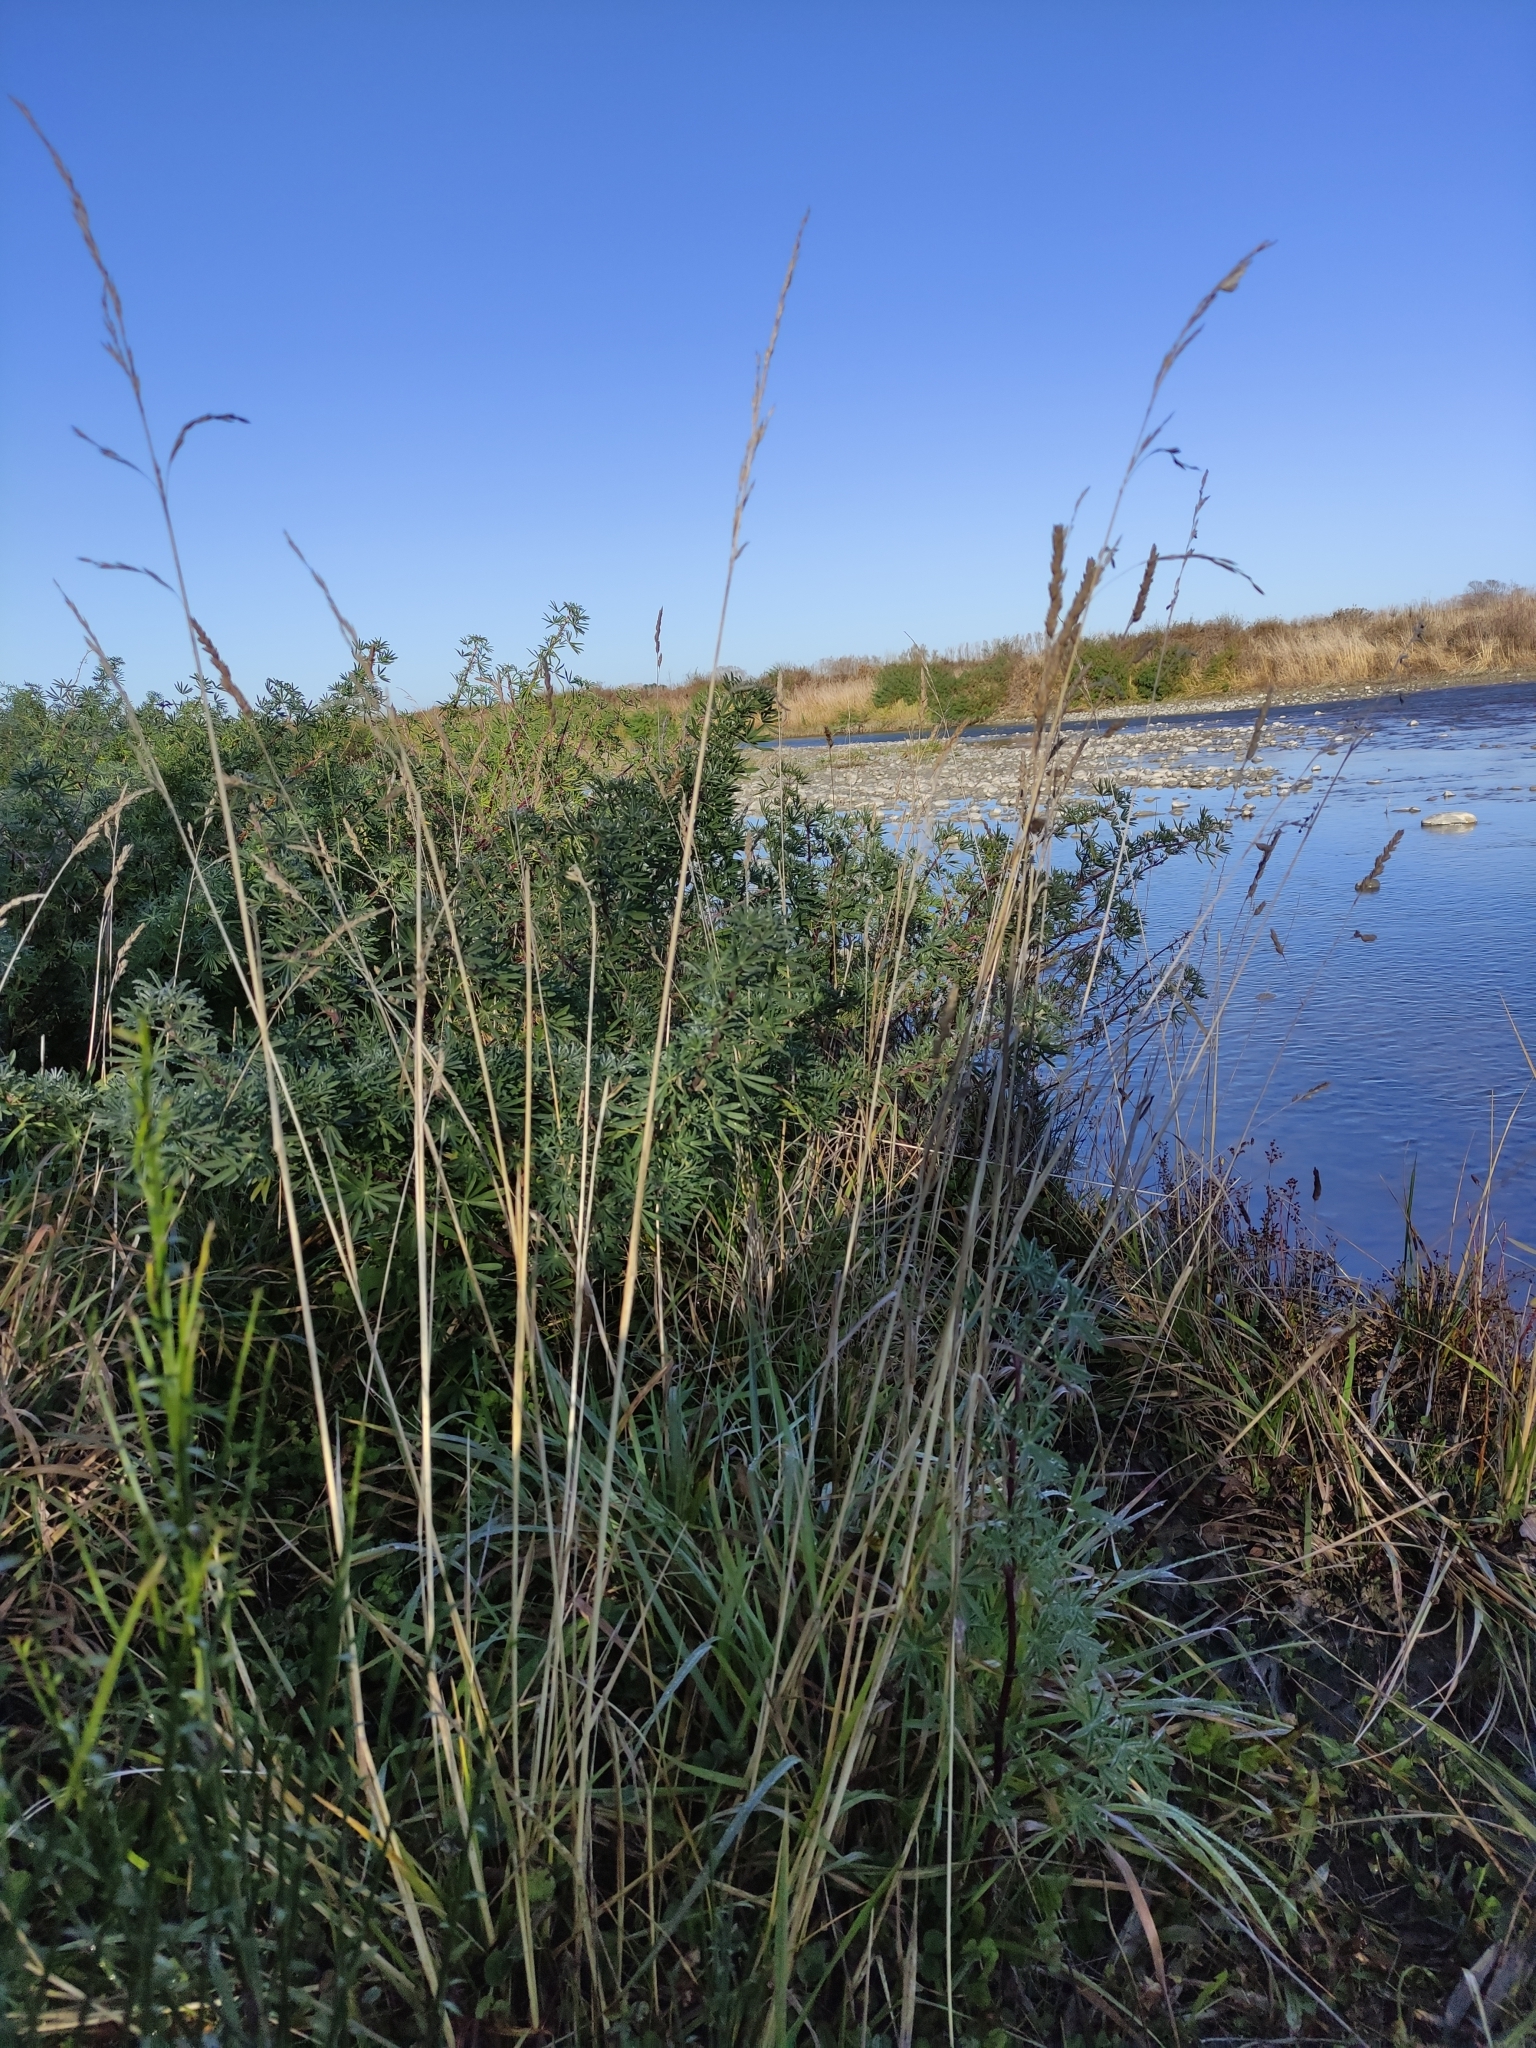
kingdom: Plantae
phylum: Tracheophyta
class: Liliopsida
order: Poales
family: Poaceae
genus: Lolium
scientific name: Lolium arundinaceum
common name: Reed fescue
